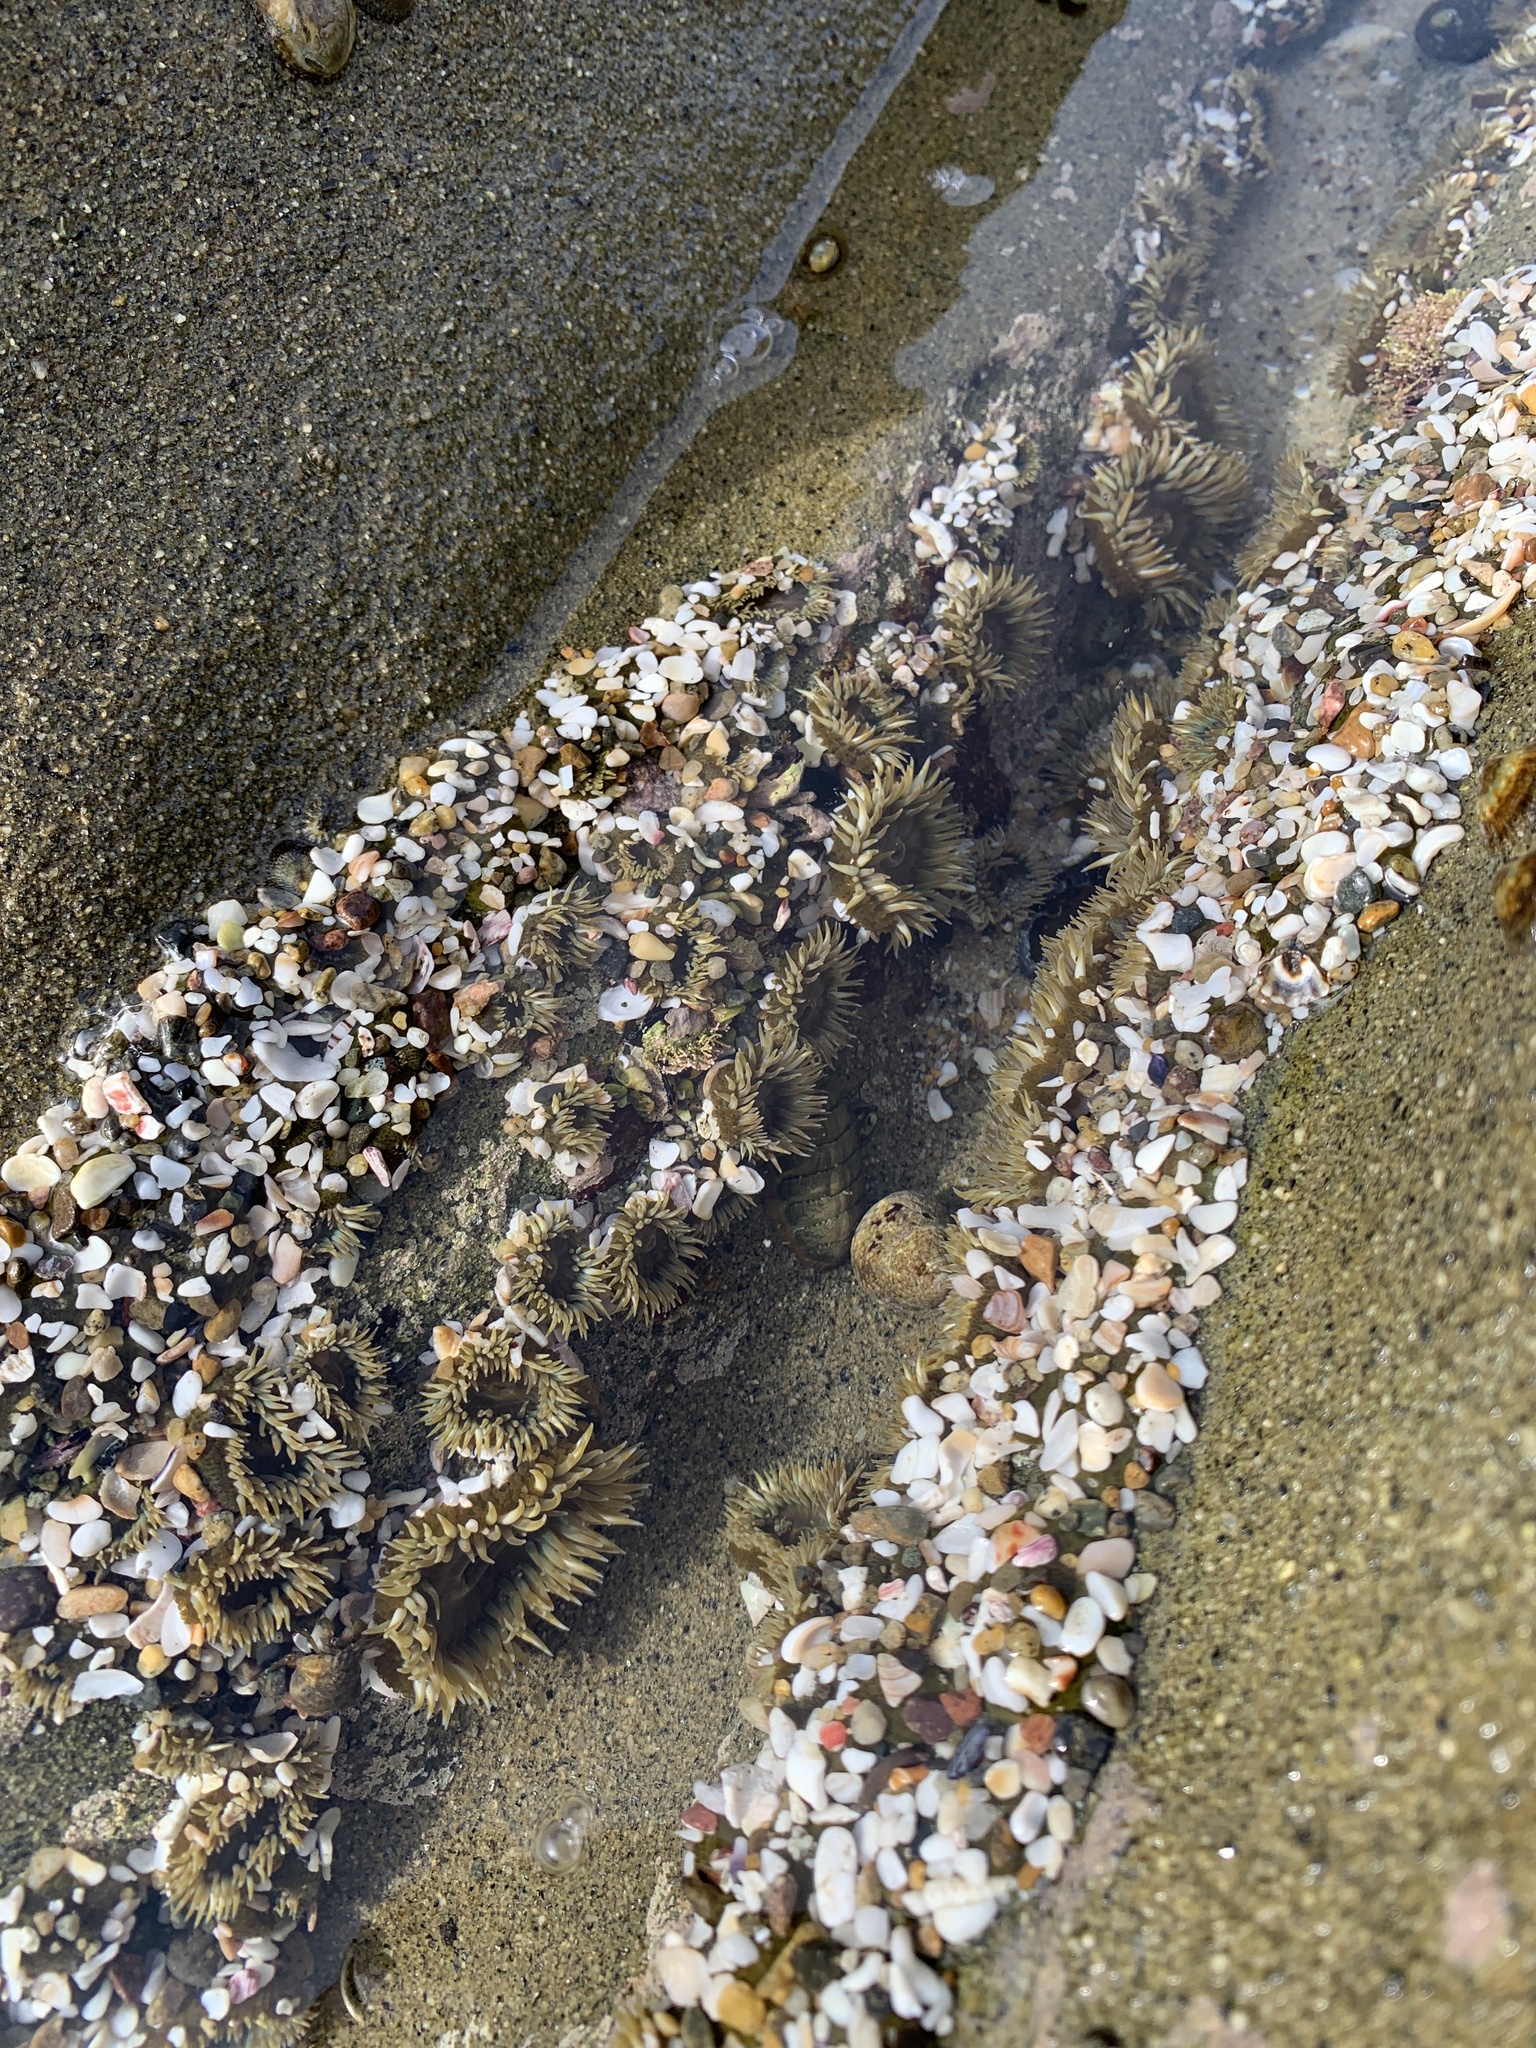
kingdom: Animalia
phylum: Cnidaria
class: Anthozoa
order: Actiniaria
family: Actiniidae
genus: Anthopleura
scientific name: Anthopleura elegantissima
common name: Clonal anemone
